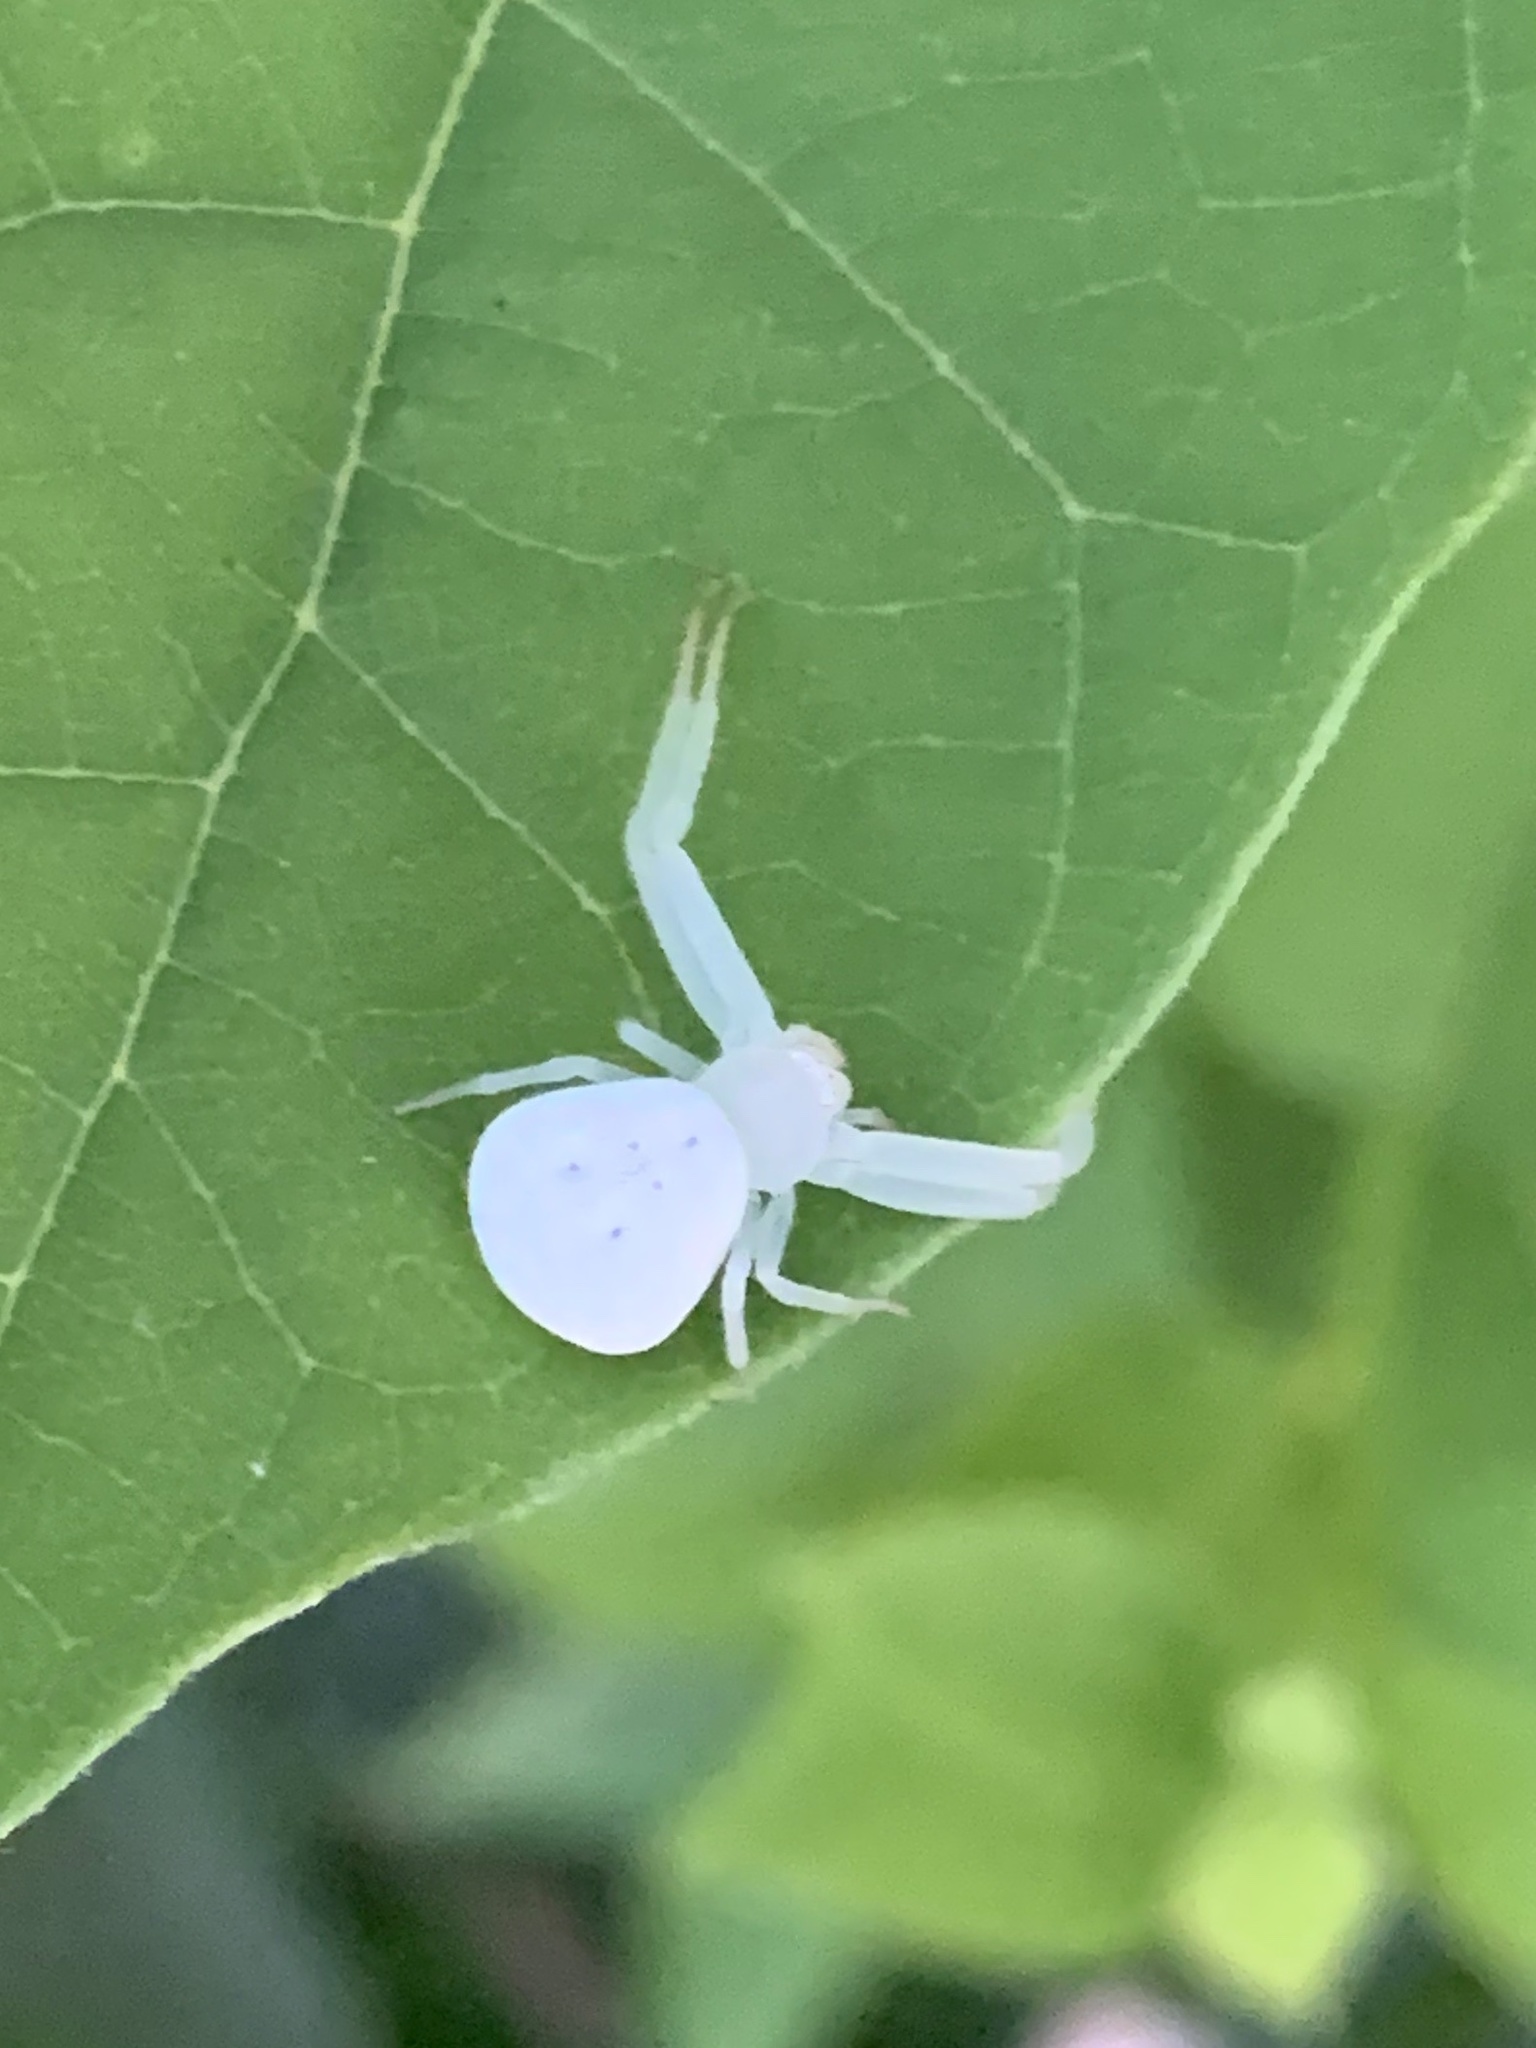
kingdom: Animalia
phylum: Arthropoda
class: Arachnida
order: Araneae
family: Thomisidae
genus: Misumessus
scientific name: Misumessus oblongus
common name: American green crab spider
